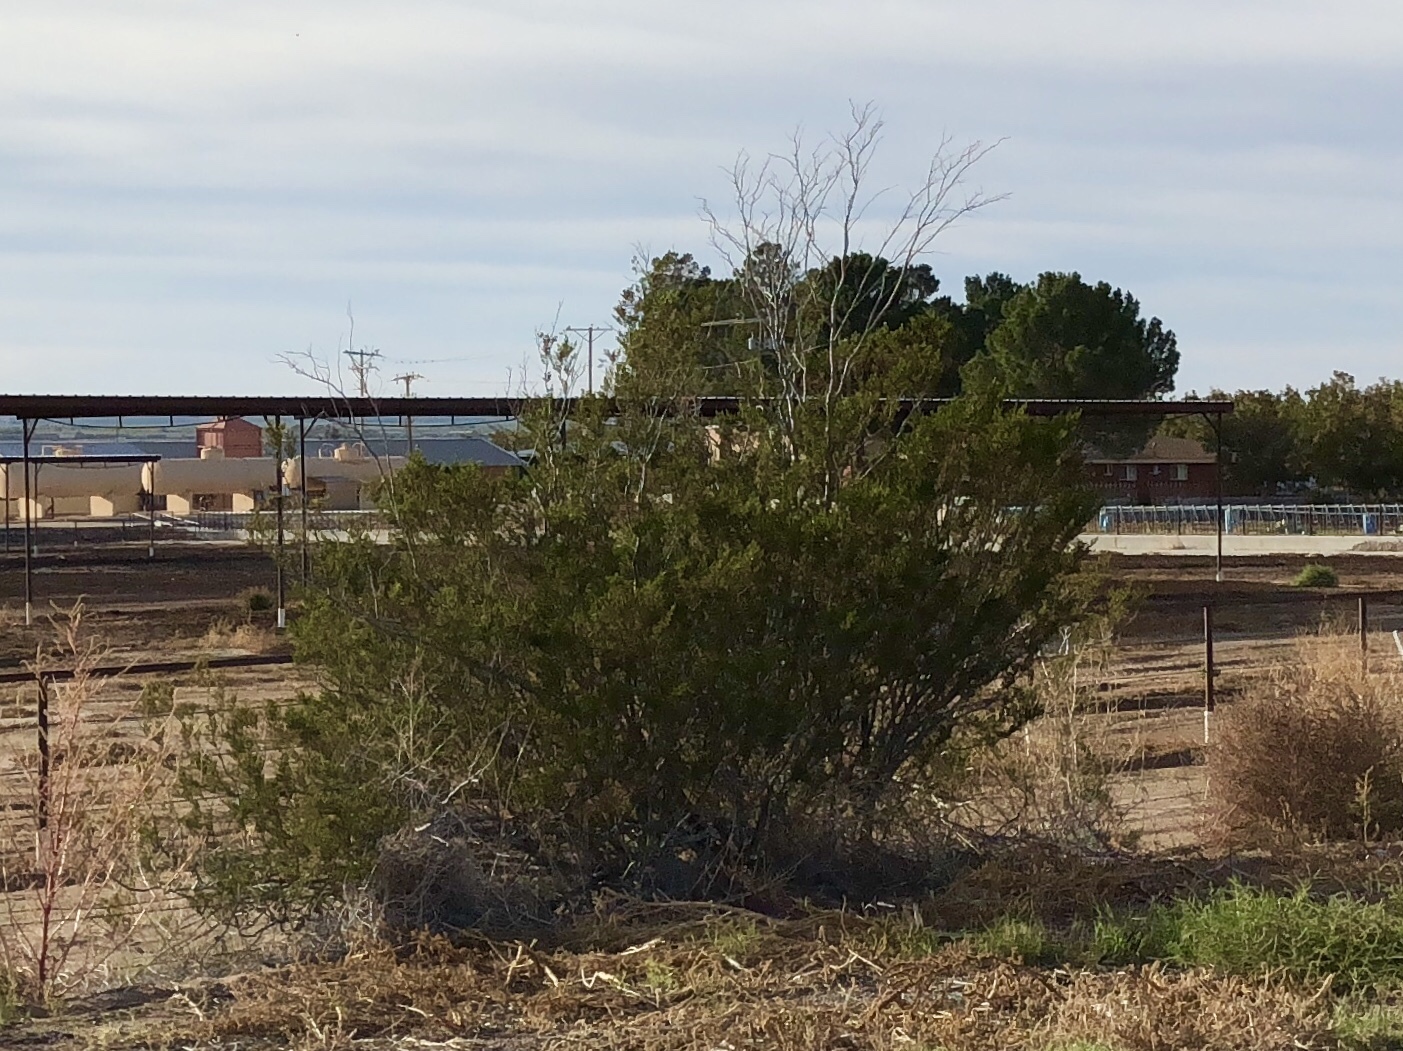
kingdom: Plantae
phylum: Tracheophyta
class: Magnoliopsida
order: Zygophyllales
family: Zygophyllaceae
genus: Larrea
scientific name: Larrea tridentata
